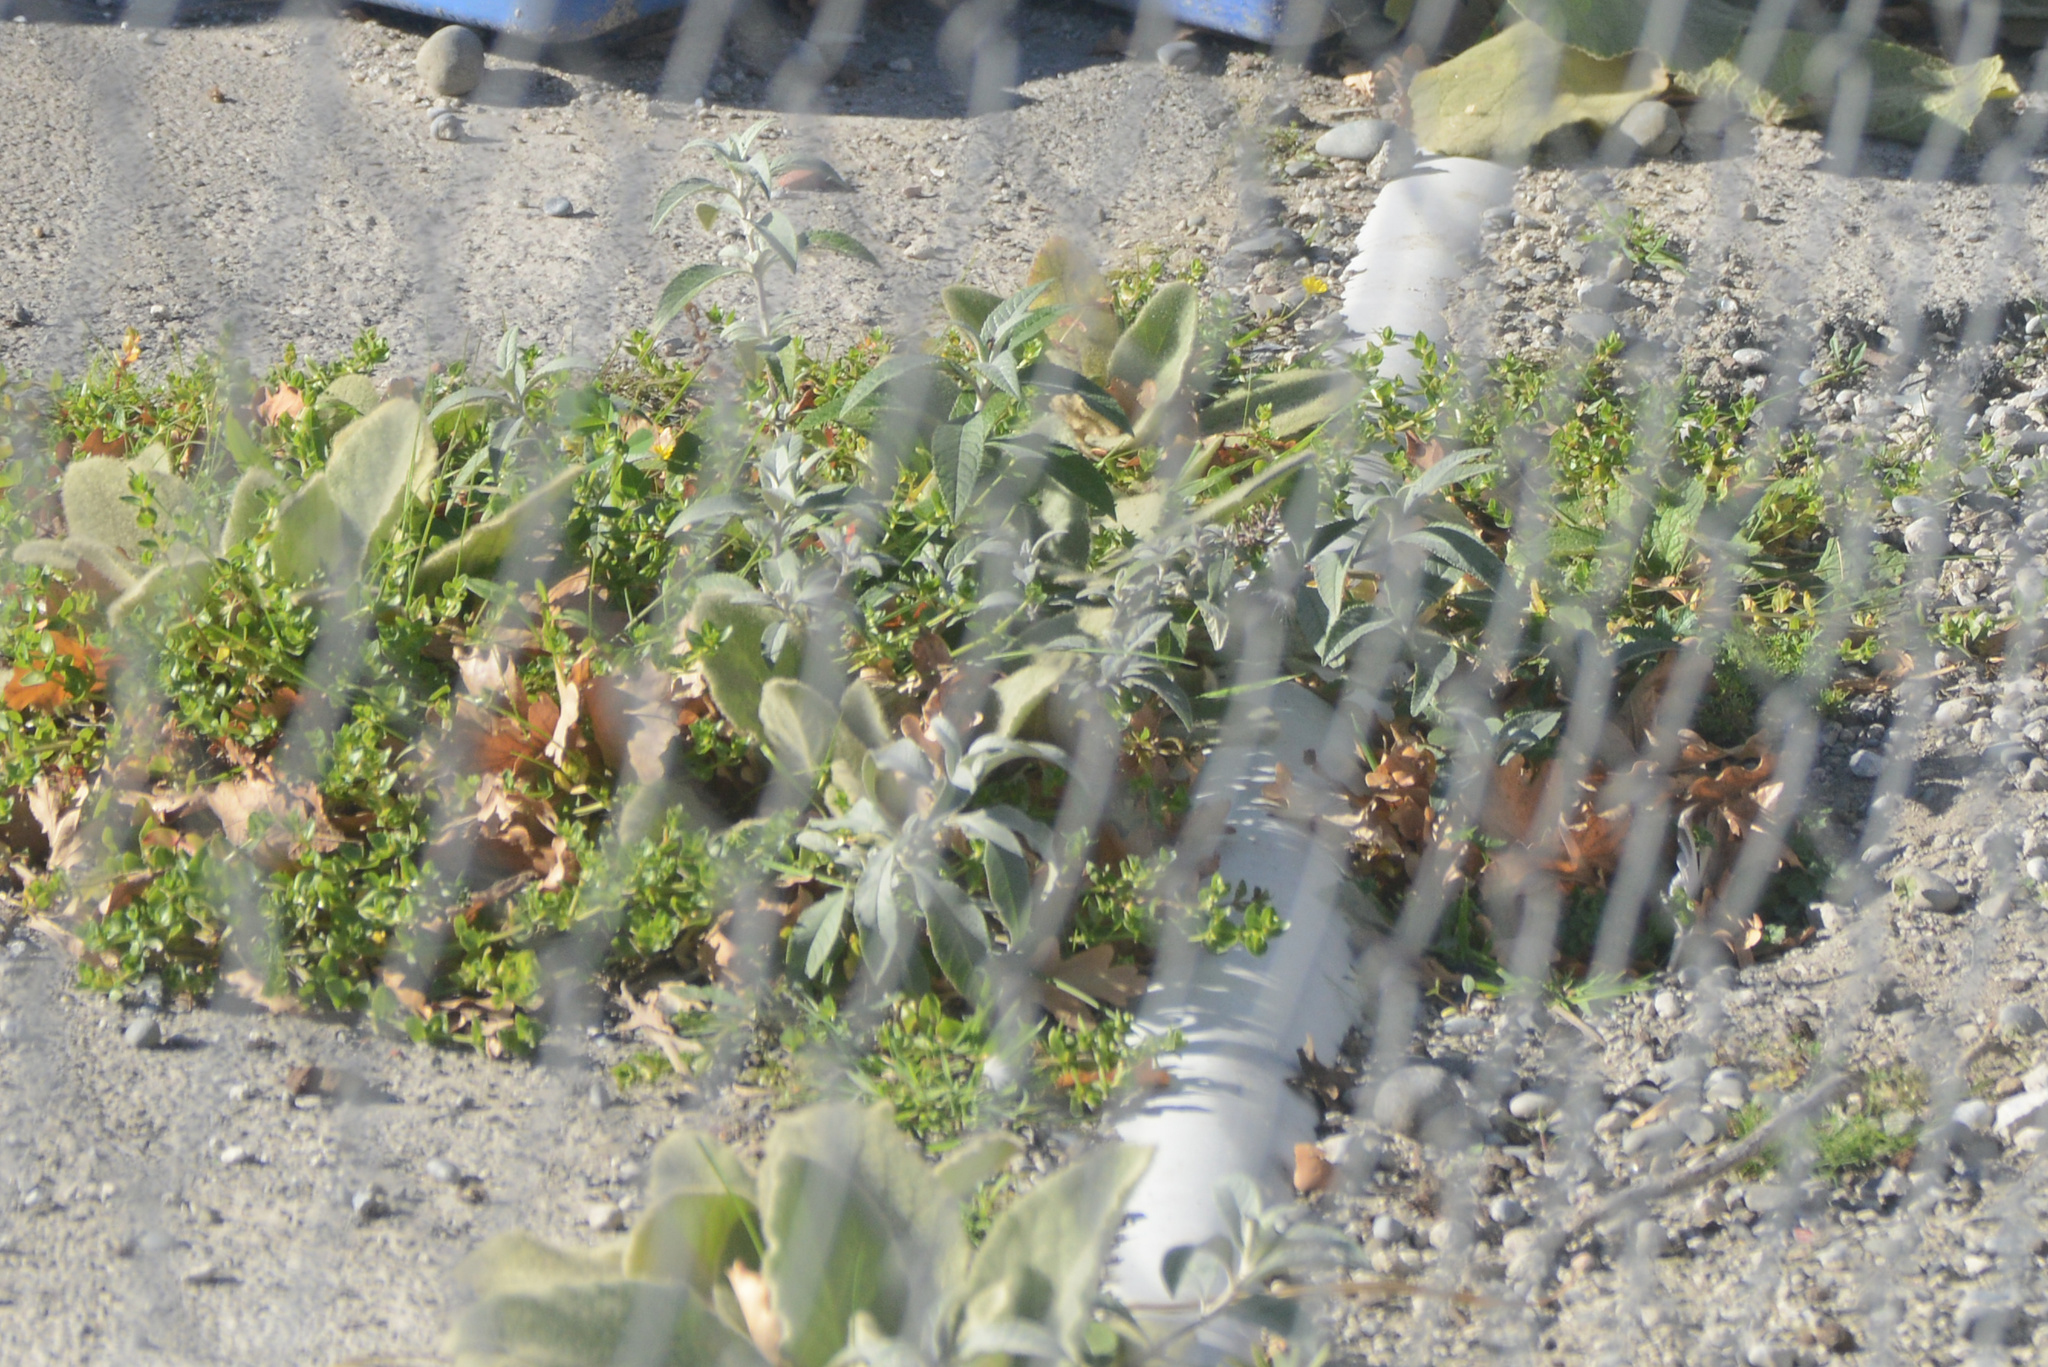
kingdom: Plantae
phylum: Tracheophyta
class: Magnoliopsida
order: Lamiales
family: Scrophulariaceae
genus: Buddleja
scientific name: Buddleja davidii
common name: Butterfly-bush
